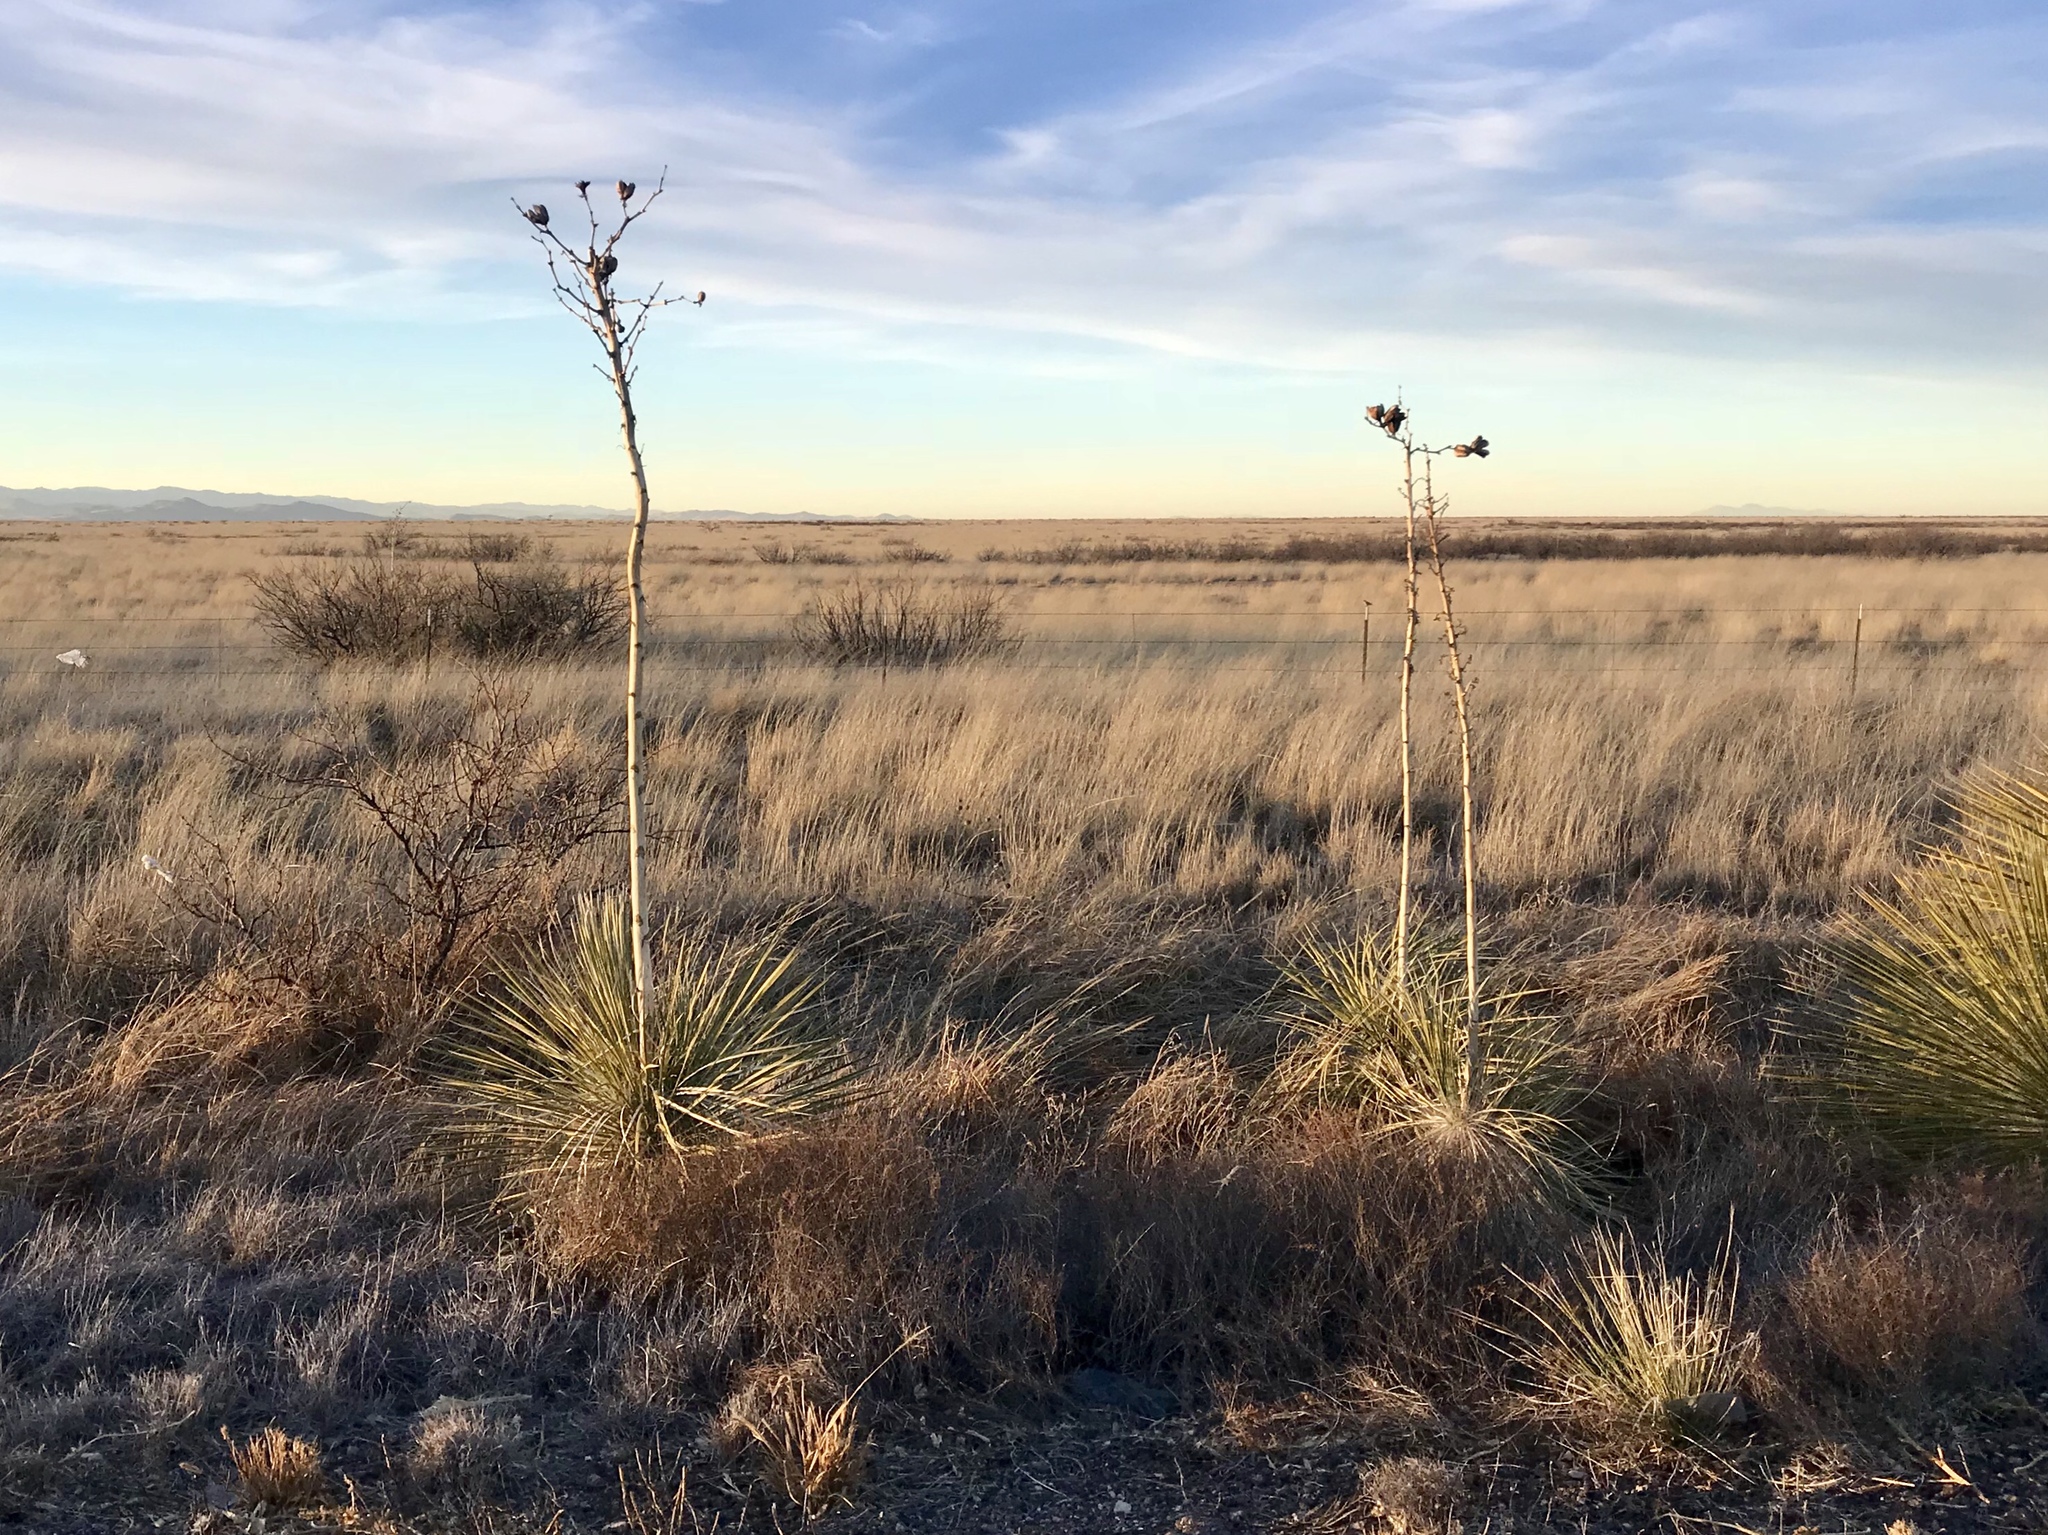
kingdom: Plantae
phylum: Tracheophyta
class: Liliopsida
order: Asparagales
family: Asparagaceae
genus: Yucca
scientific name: Yucca elata
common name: Palmella
